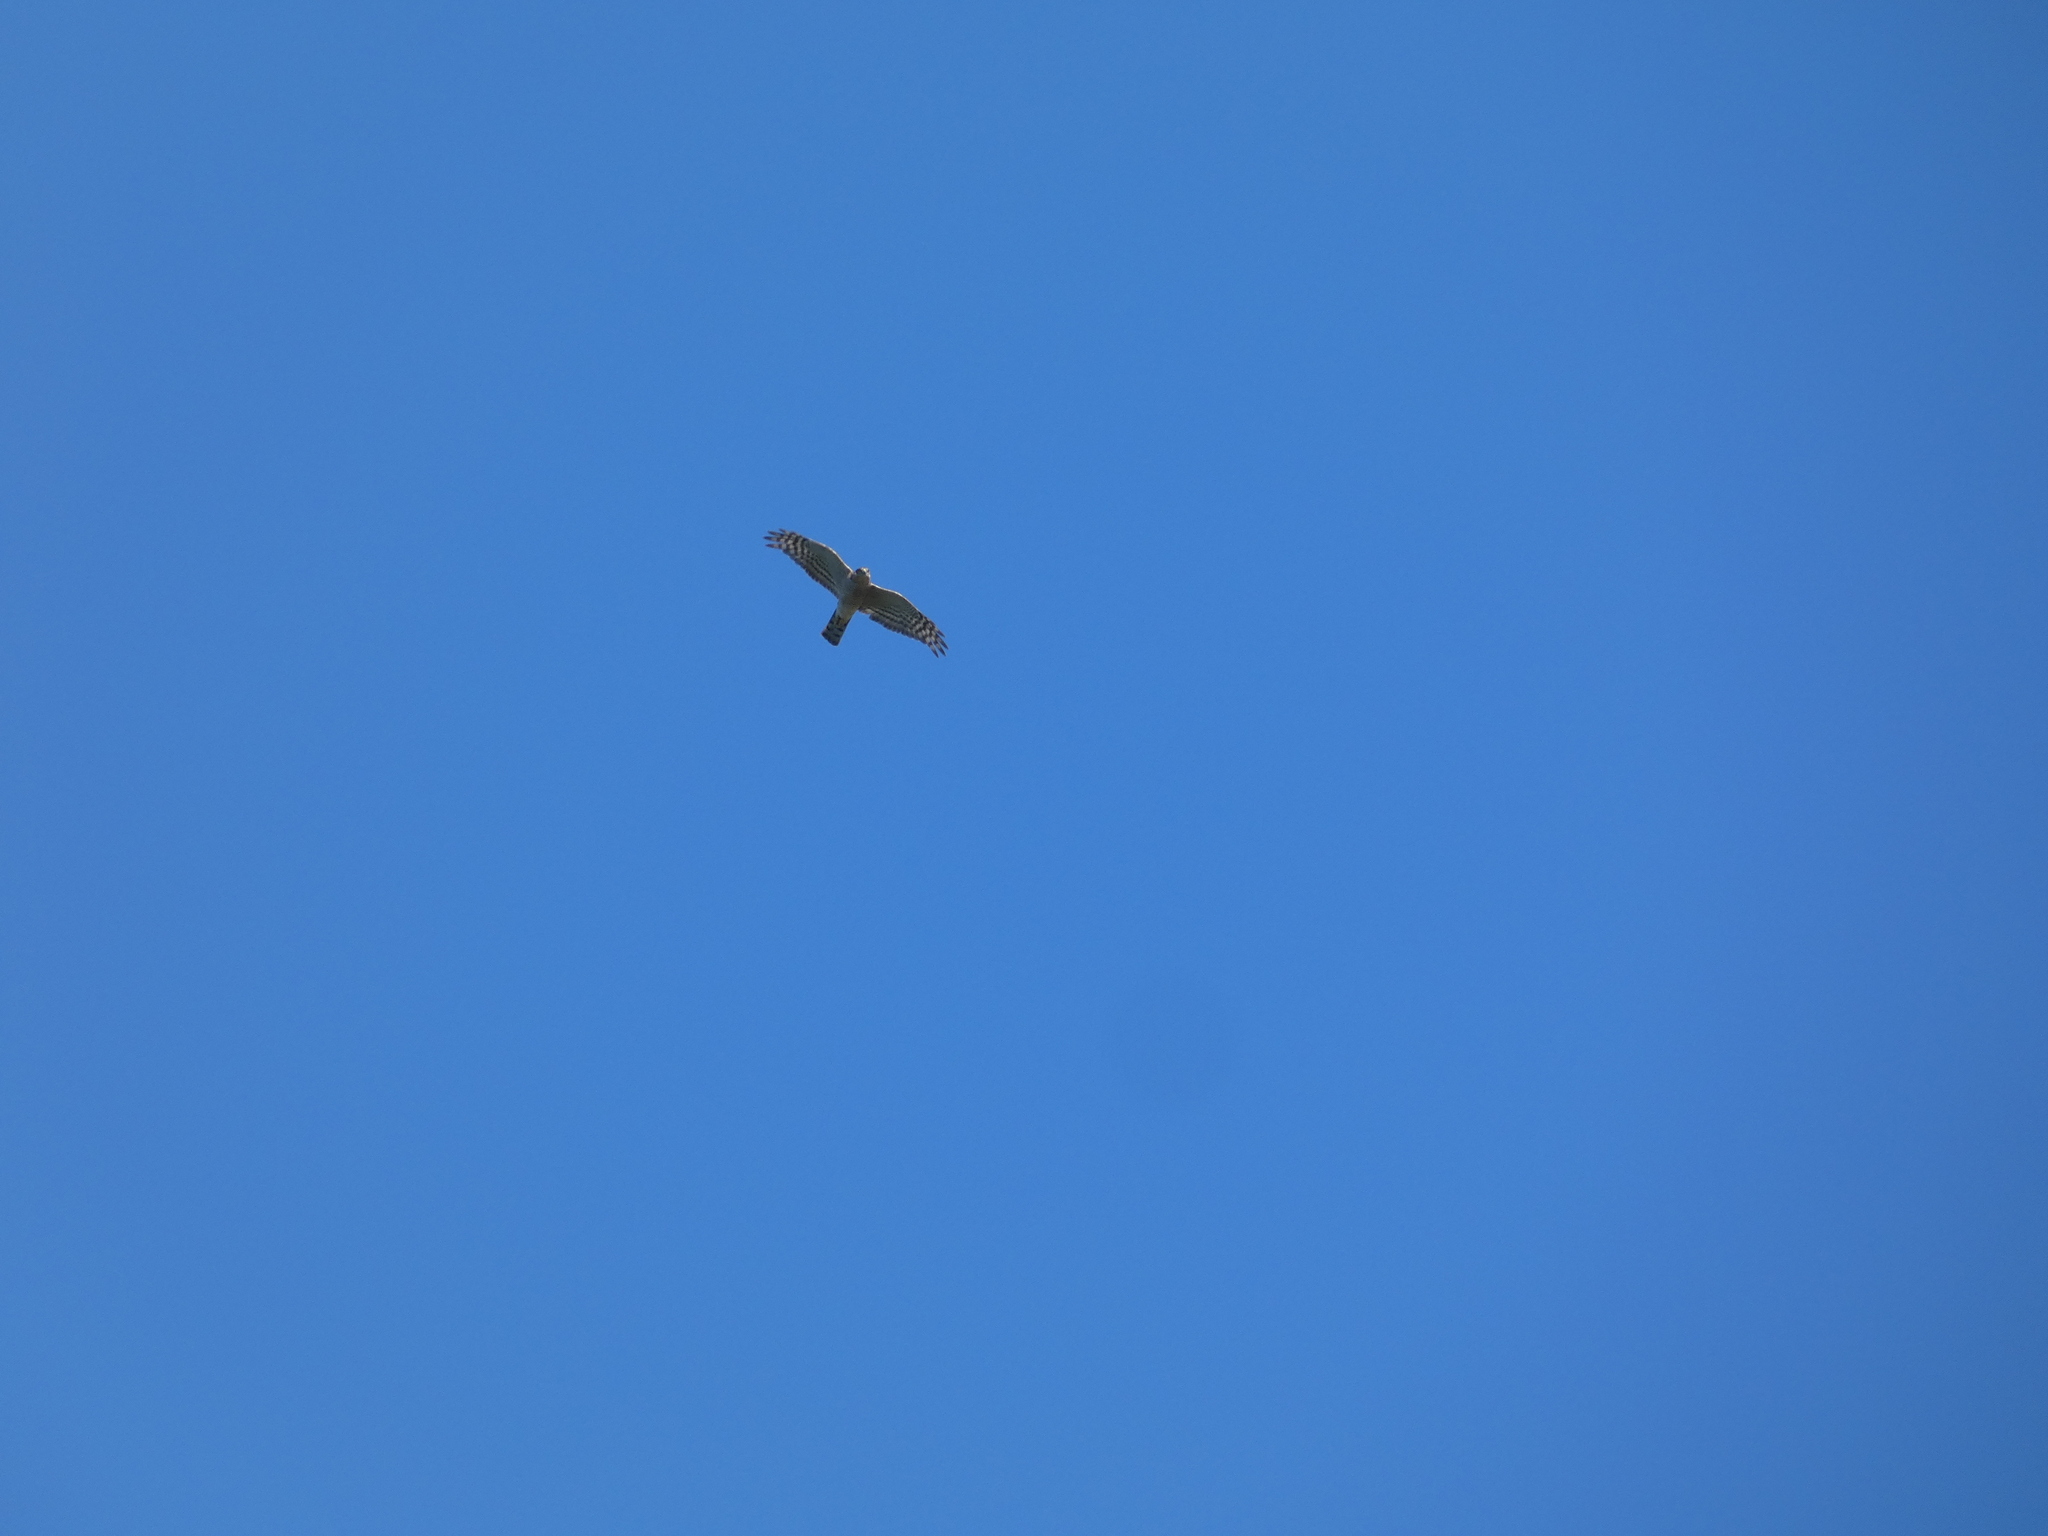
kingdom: Animalia
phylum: Chordata
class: Aves
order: Accipitriformes
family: Accipitridae
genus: Accipiter
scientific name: Accipiter nisus
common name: Eurasian sparrowhawk
